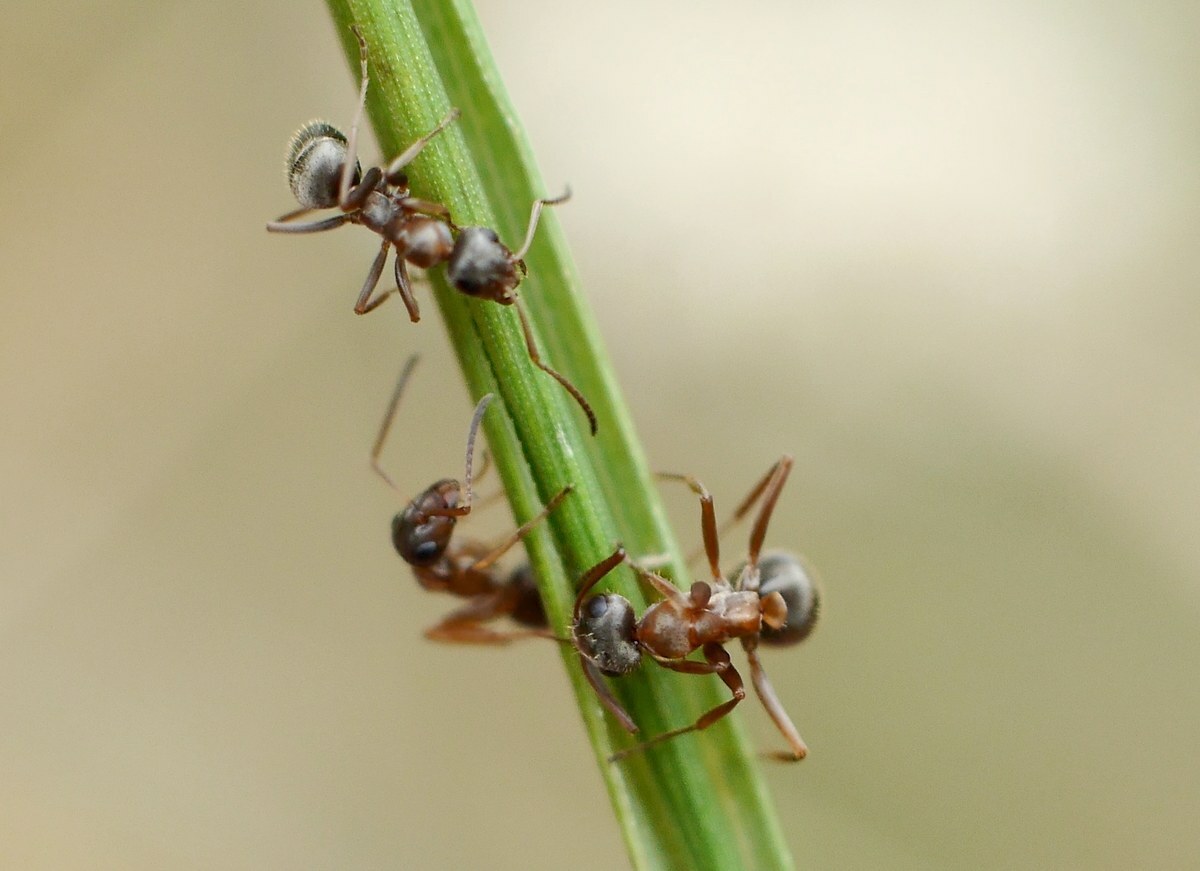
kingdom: Animalia
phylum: Arthropoda
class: Insecta
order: Hymenoptera
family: Formicidae
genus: Formica
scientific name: Formica cinerea
